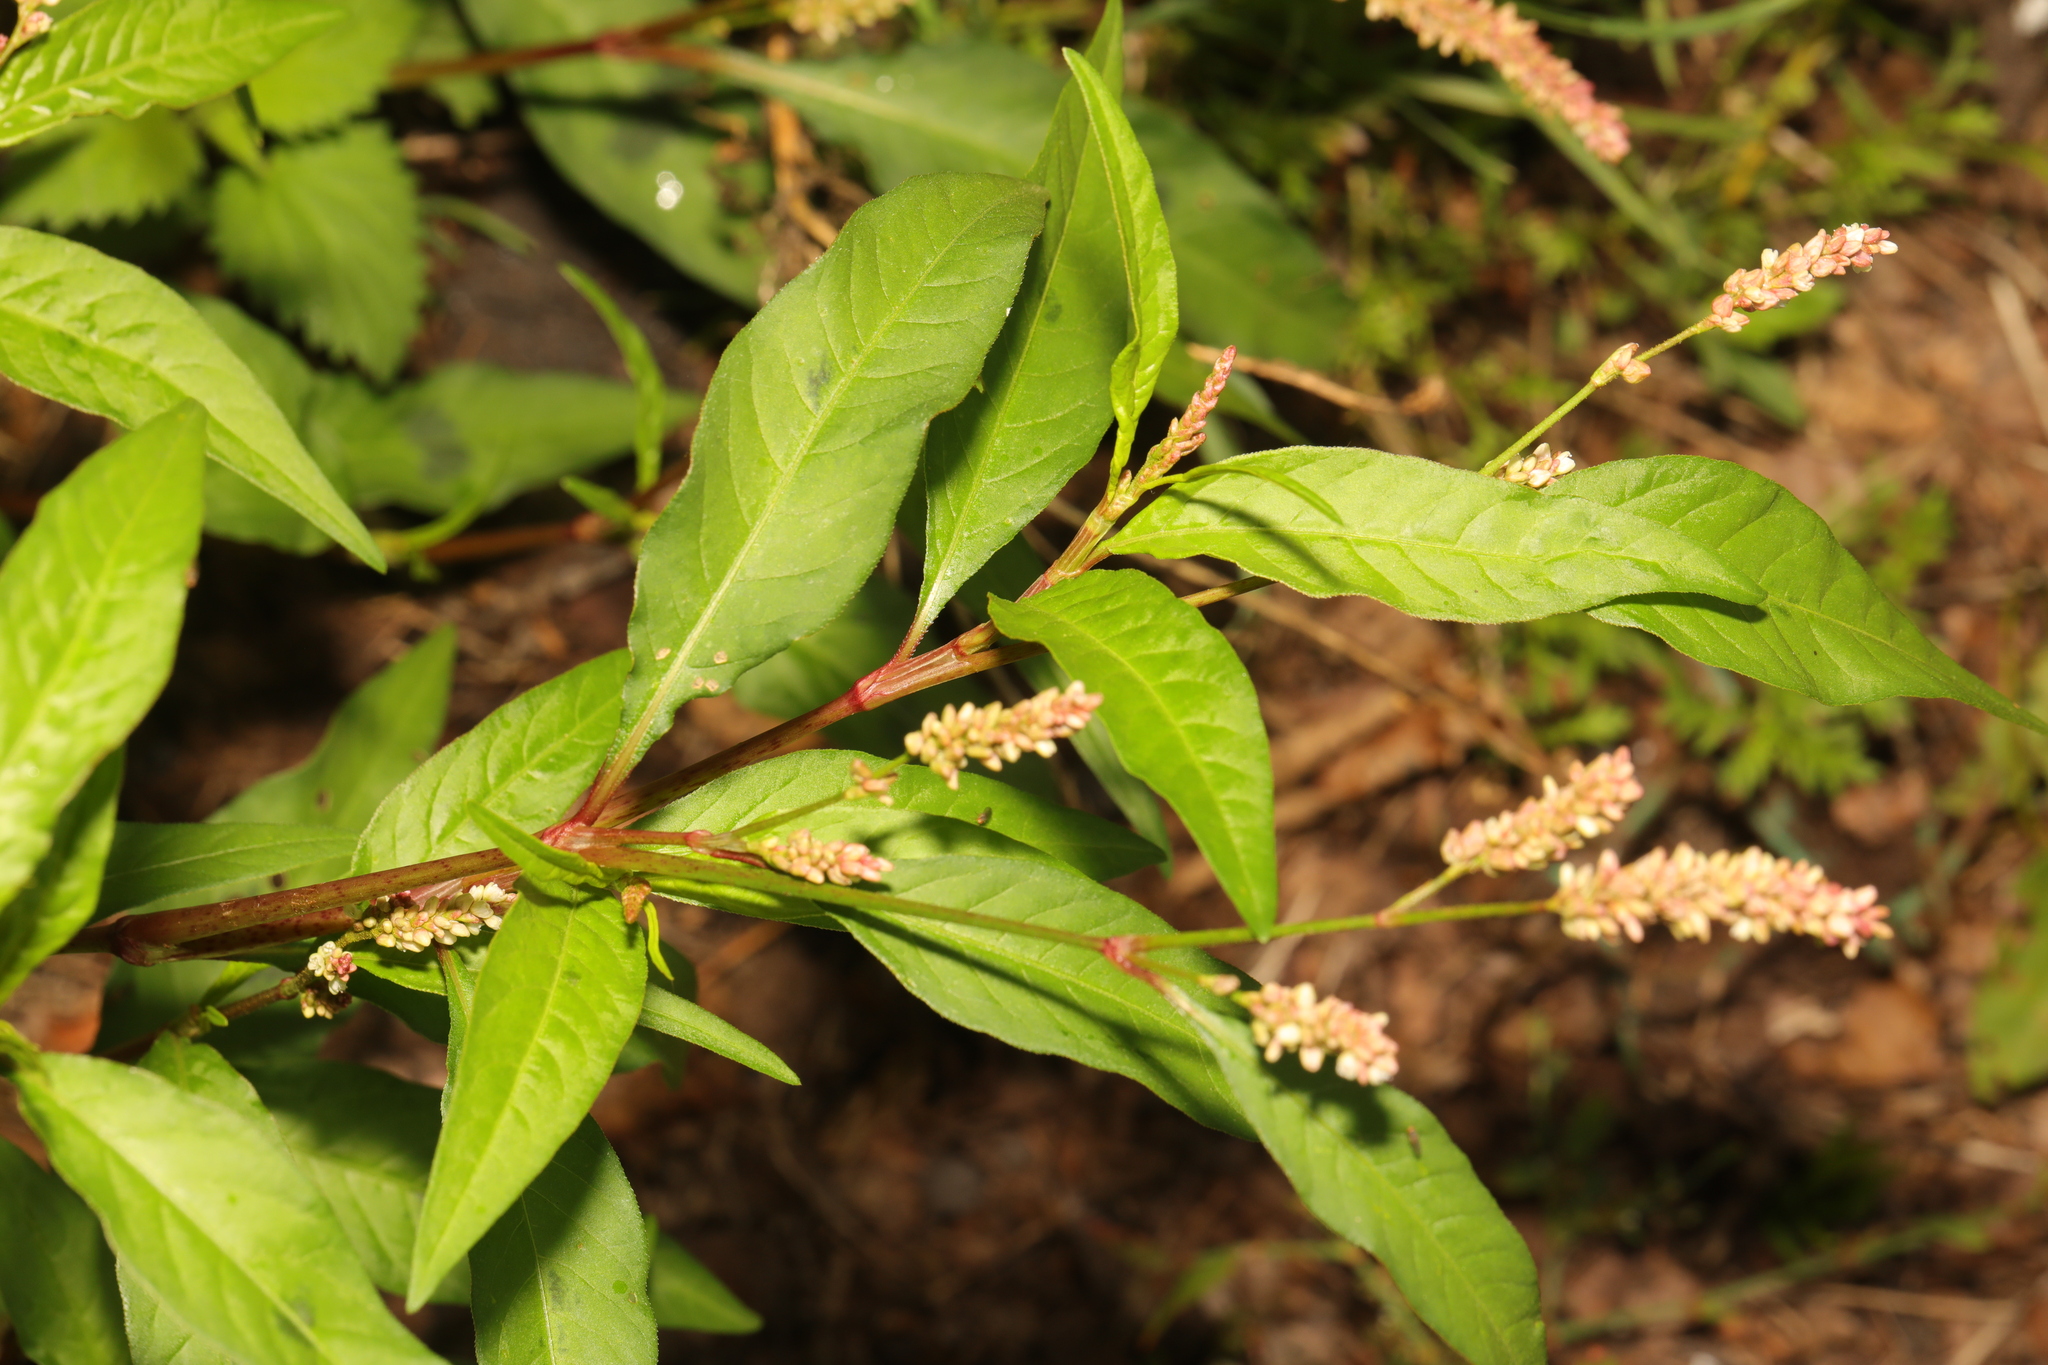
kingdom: Plantae
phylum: Tracheophyta
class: Magnoliopsida
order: Caryophyllales
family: Polygonaceae
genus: Persicaria
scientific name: Persicaria maculosa
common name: Redshank
